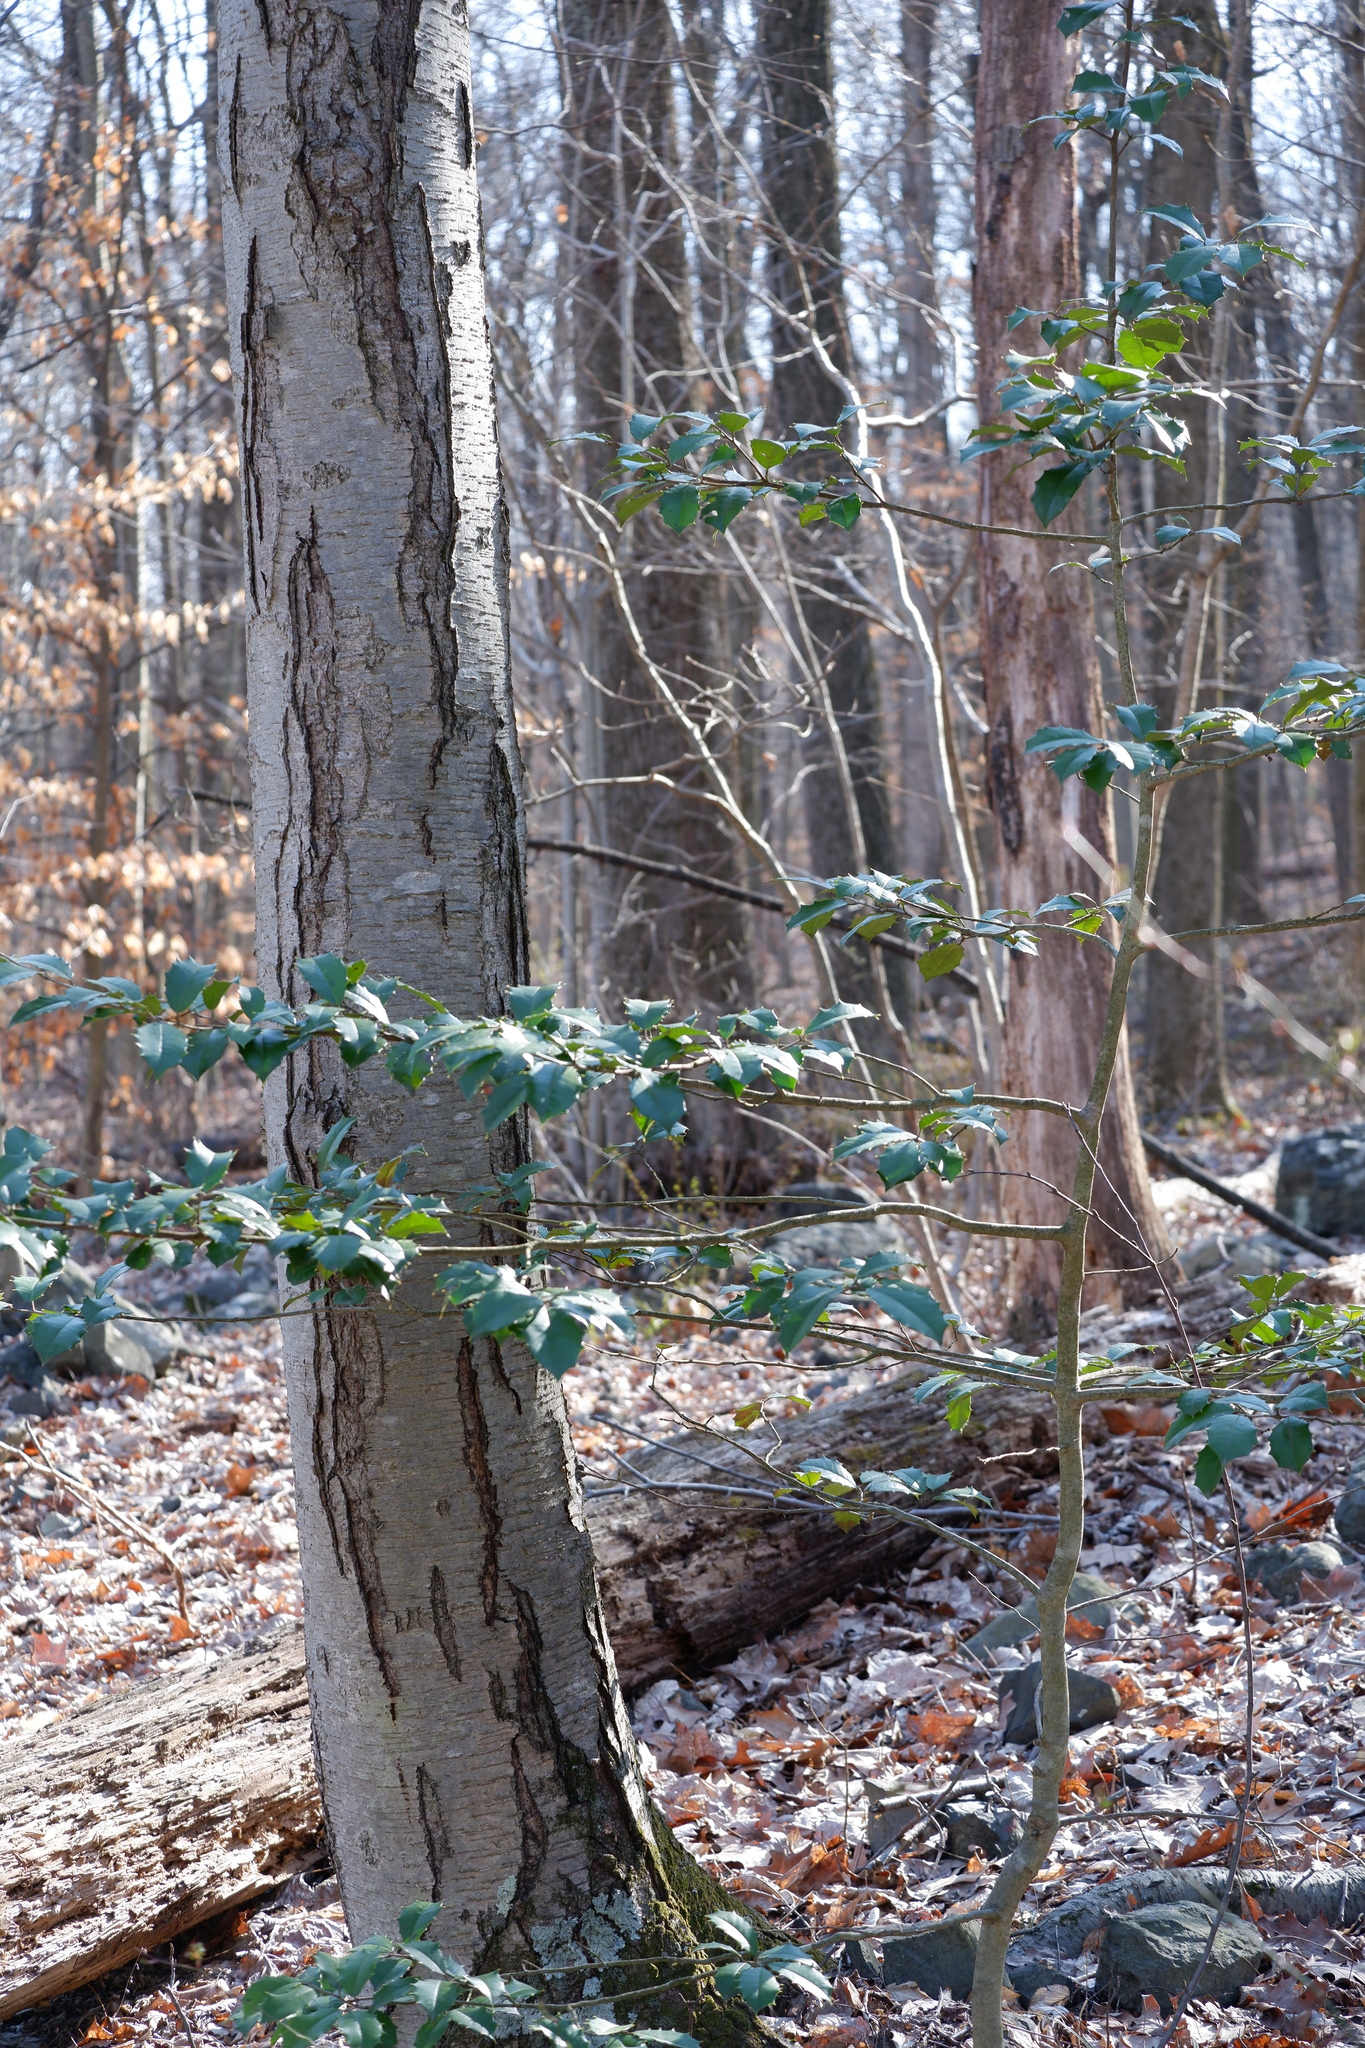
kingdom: Plantae
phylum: Tracheophyta
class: Magnoliopsida
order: Fagales
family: Betulaceae
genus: Betula
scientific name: Betula lenta
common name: Black birch
